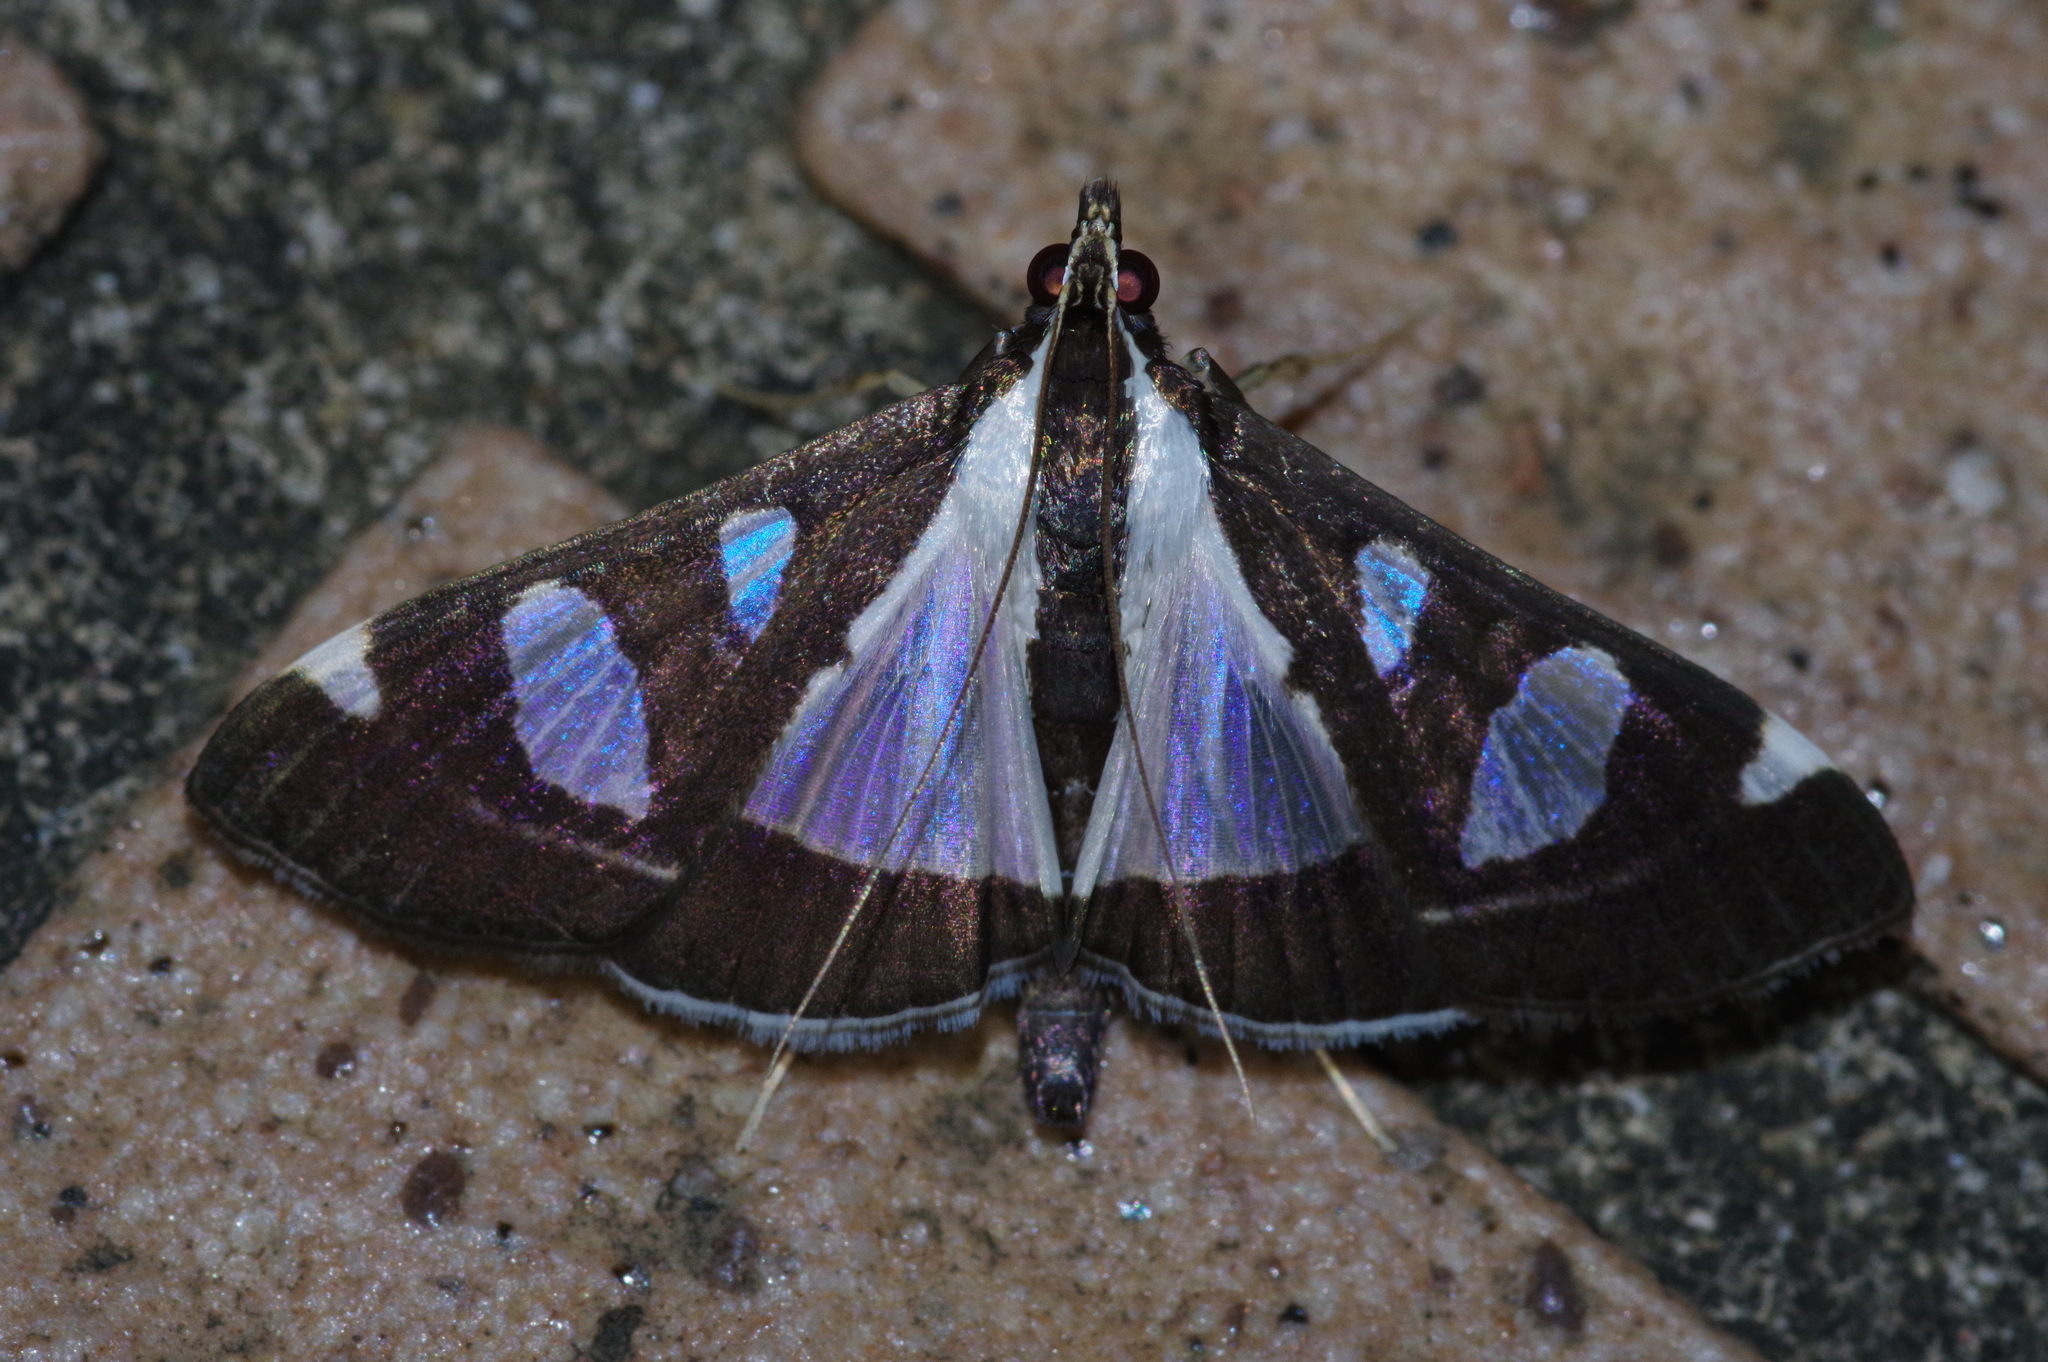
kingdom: Animalia
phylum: Arthropoda
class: Insecta
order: Lepidoptera
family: Crambidae
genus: Glyphodes
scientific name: Glyphodes actorionalis
